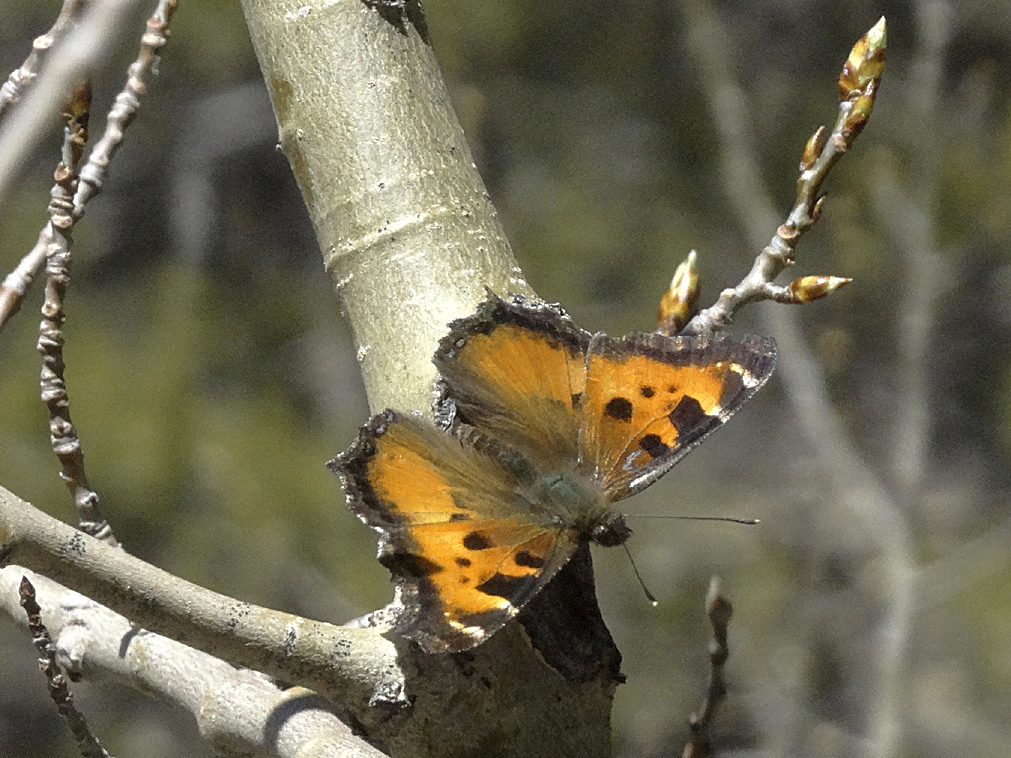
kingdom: Animalia
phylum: Arthropoda
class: Insecta
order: Lepidoptera
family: Nymphalidae
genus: Nymphalis
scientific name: Nymphalis californica
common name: California tortoiseshell
